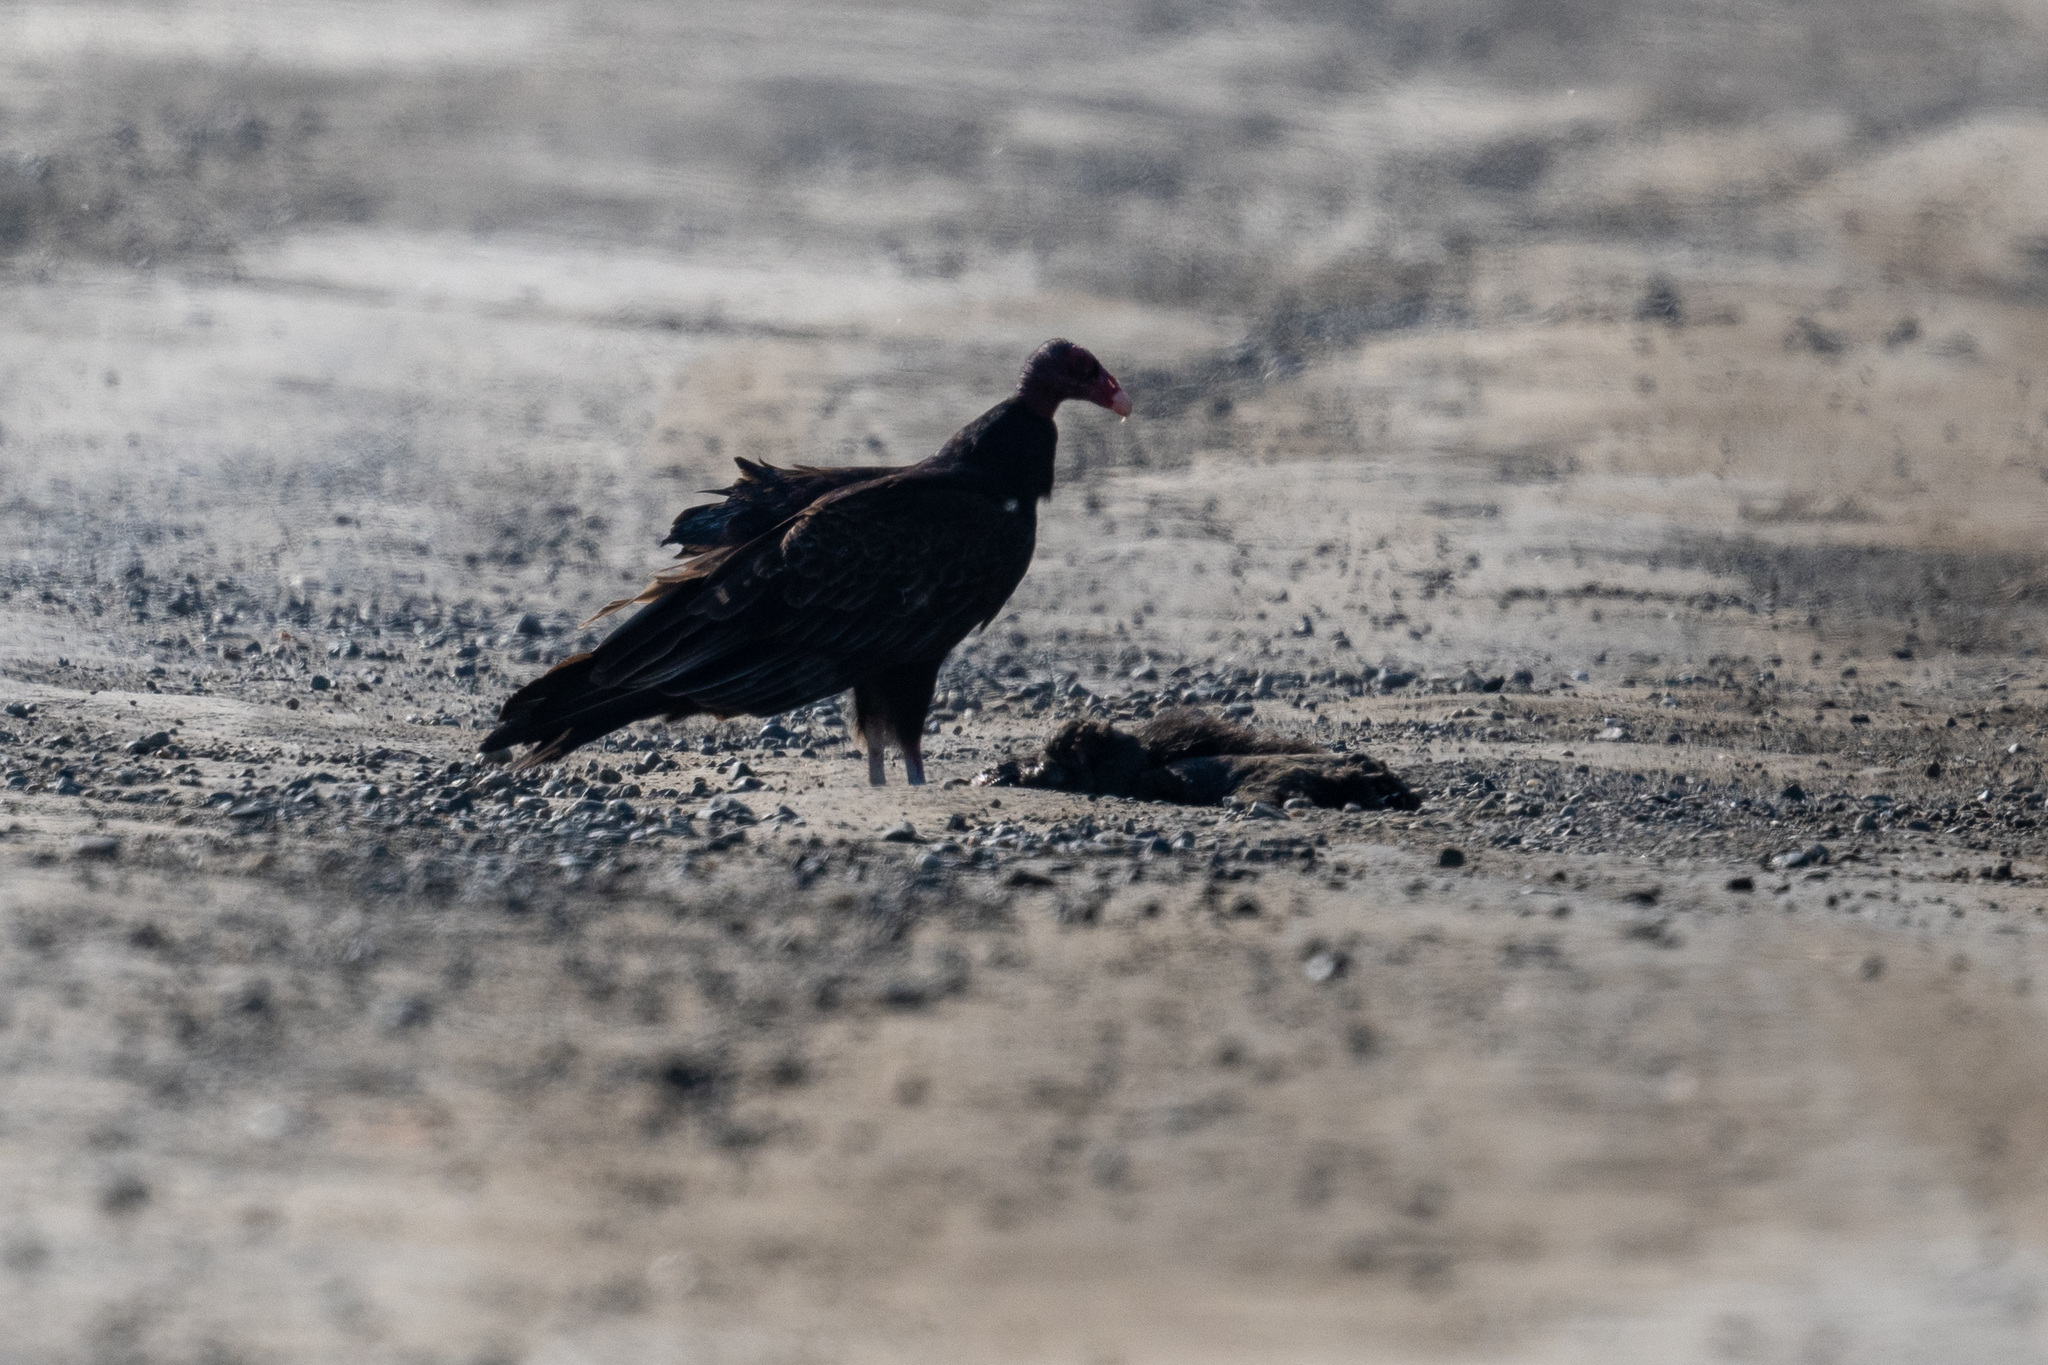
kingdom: Animalia
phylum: Chordata
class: Aves
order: Accipitriformes
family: Cathartidae
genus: Cathartes
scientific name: Cathartes aura
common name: Turkey vulture
